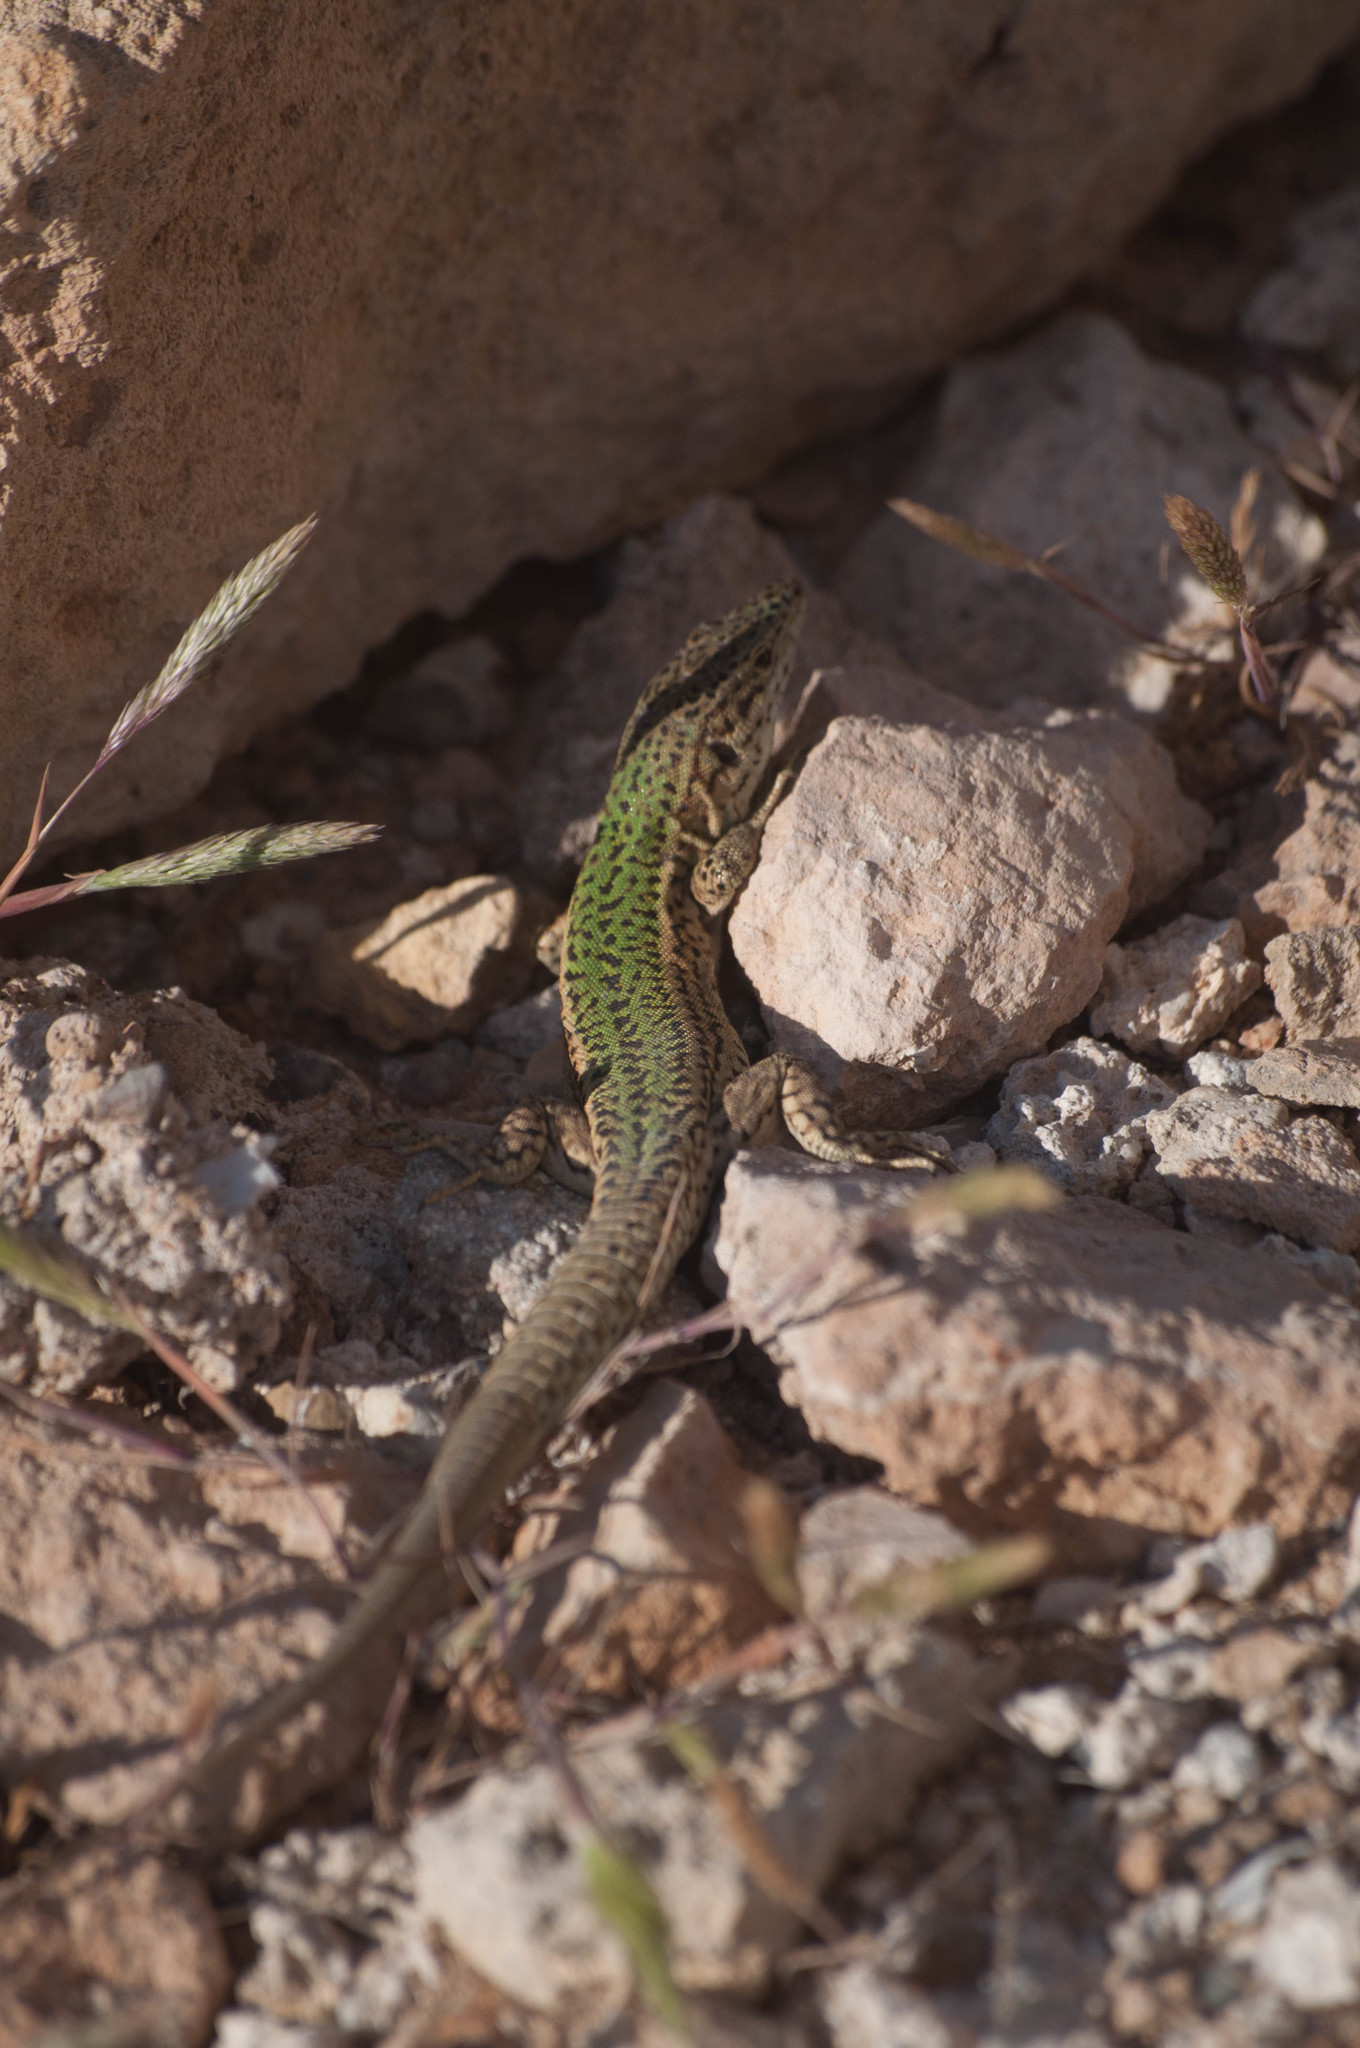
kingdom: Animalia
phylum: Chordata
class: Squamata
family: Lacertidae
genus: Podarcis
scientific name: Podarcis pityusensis
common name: Ibiza wall lizard
